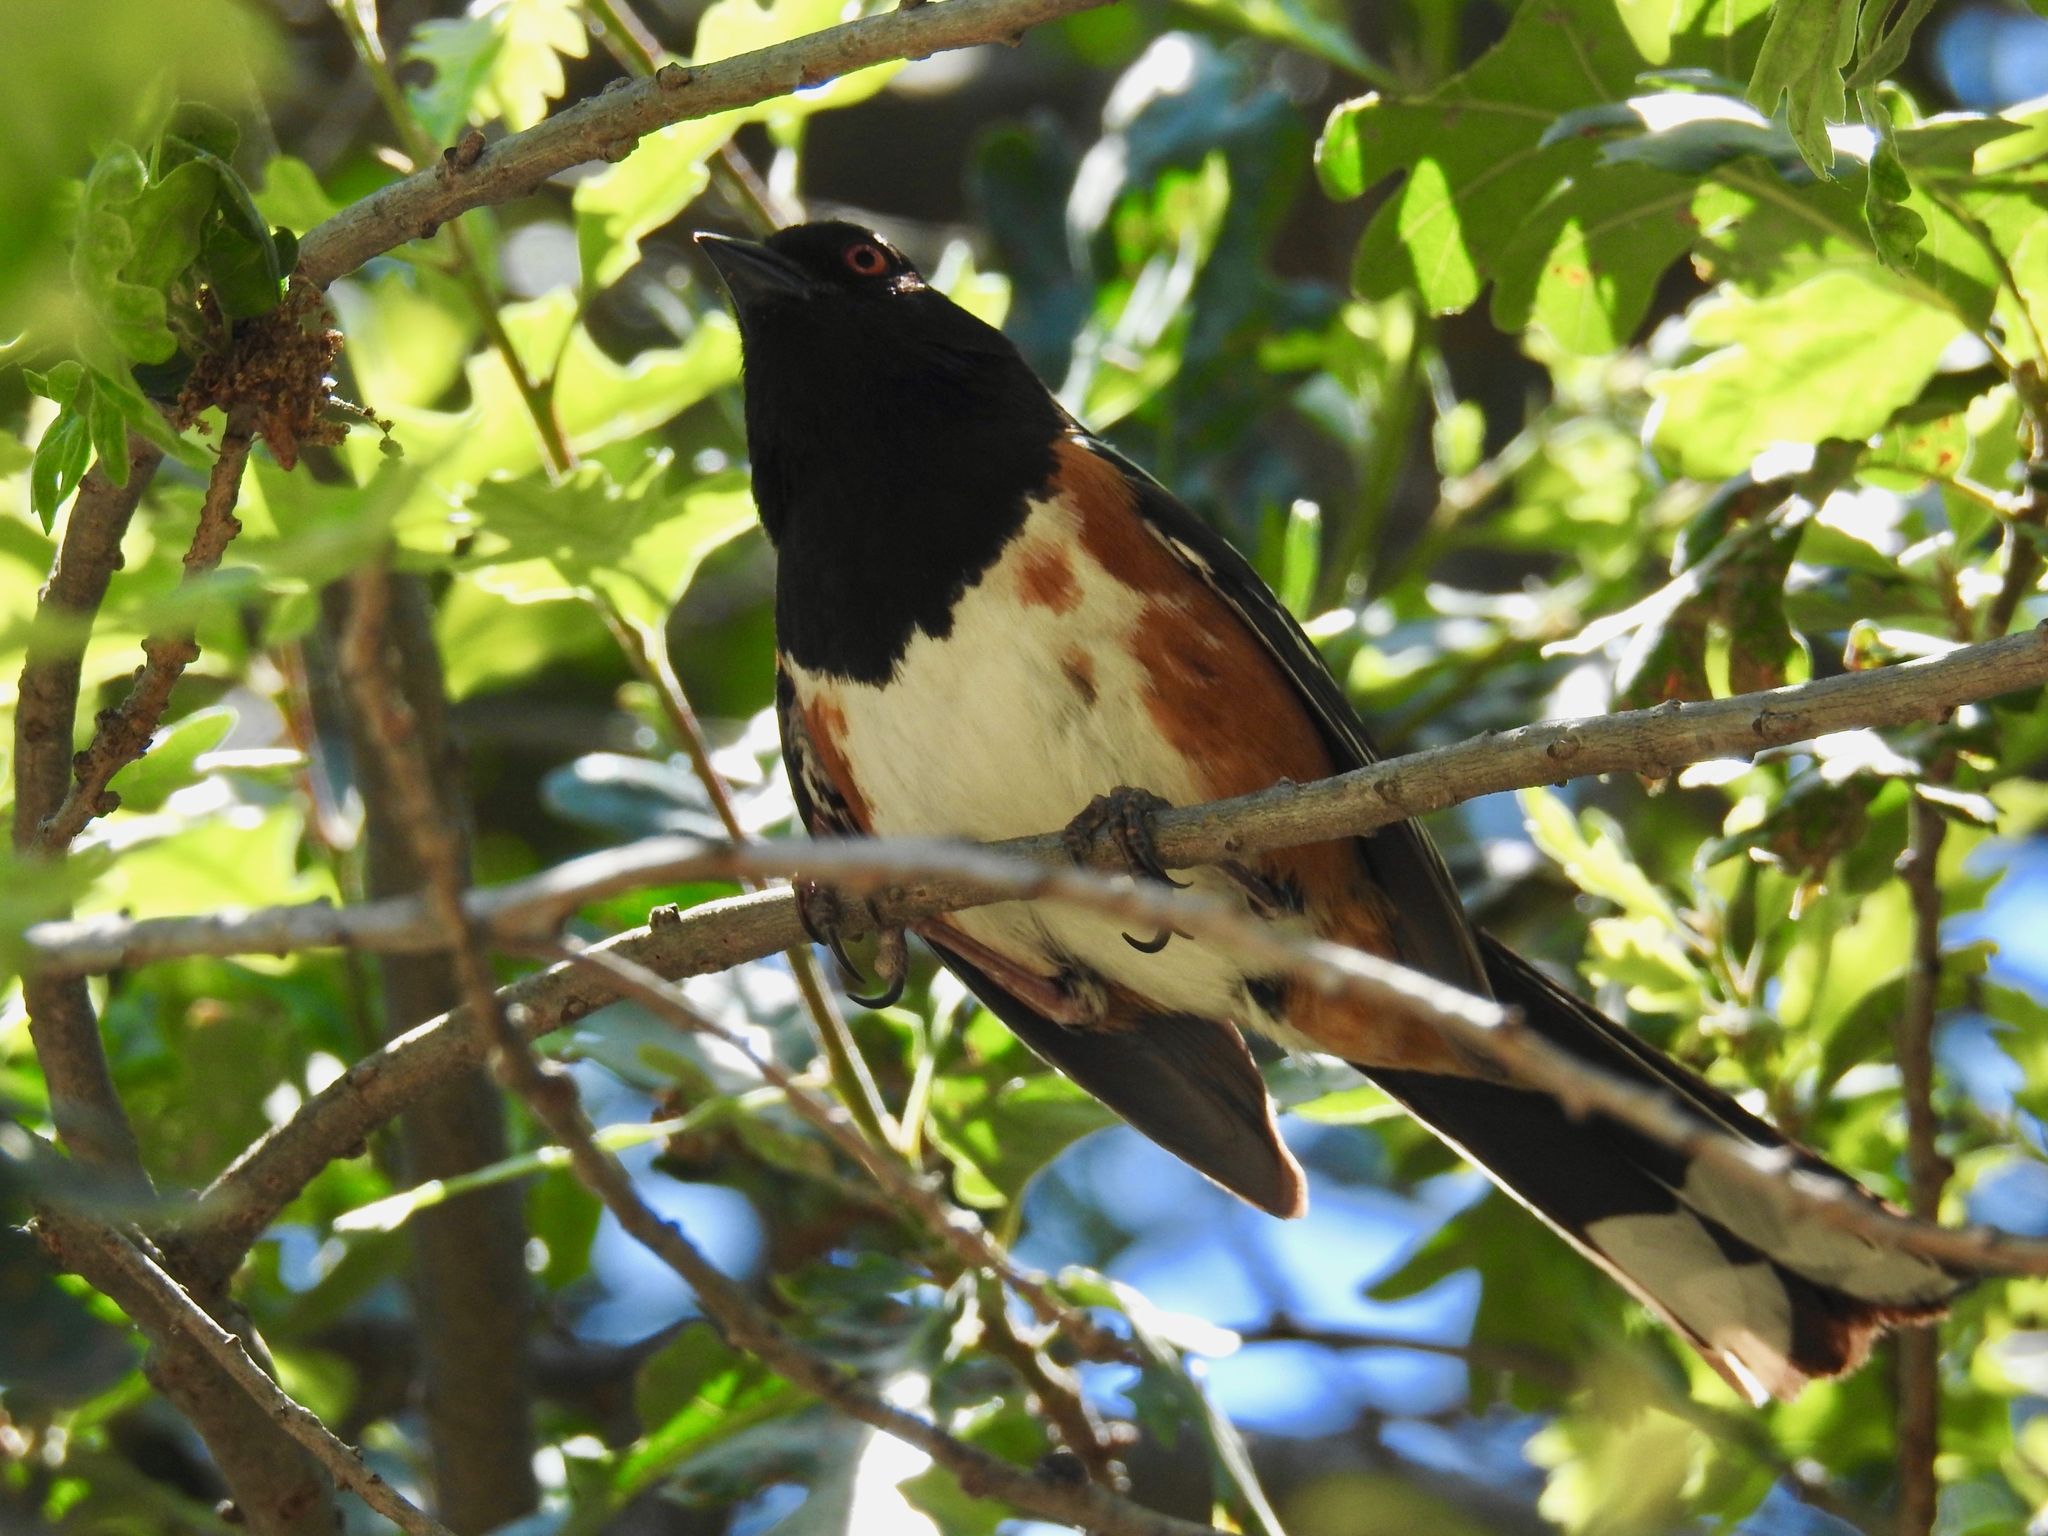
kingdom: Animalia
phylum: Chordata
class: Aves
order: Passeriformes
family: Passerellidae
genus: Pipilo
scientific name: Pipilo maculatus
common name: Spotted towhee
